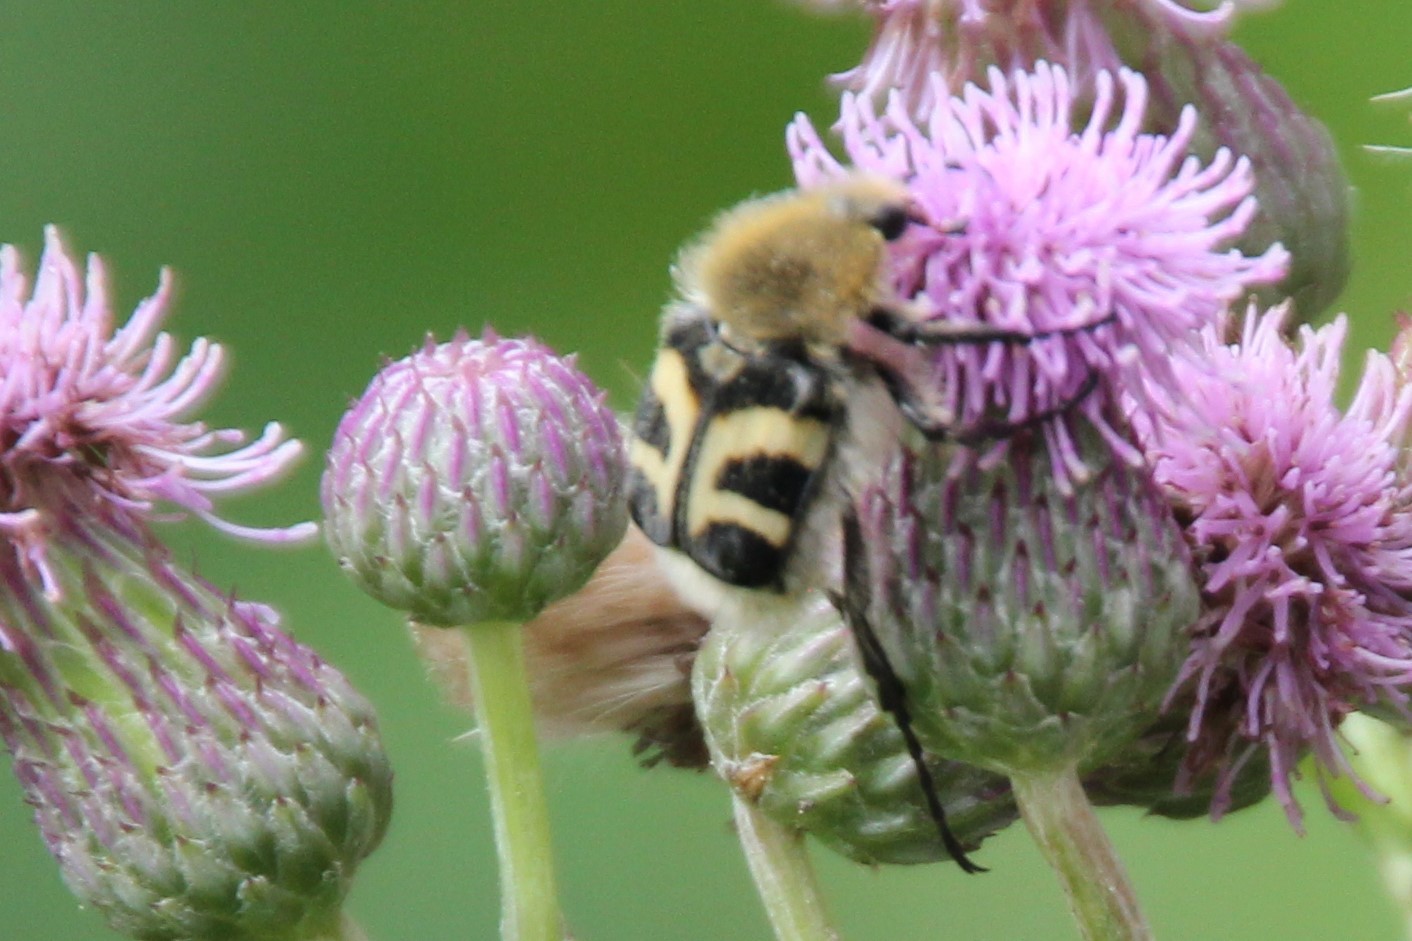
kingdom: Animalia
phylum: Arthropoda
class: Insecta
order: Coleoptera
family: Scarabaeidae
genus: Trichius
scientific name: Trichius fasciatus
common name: Bee beetle
